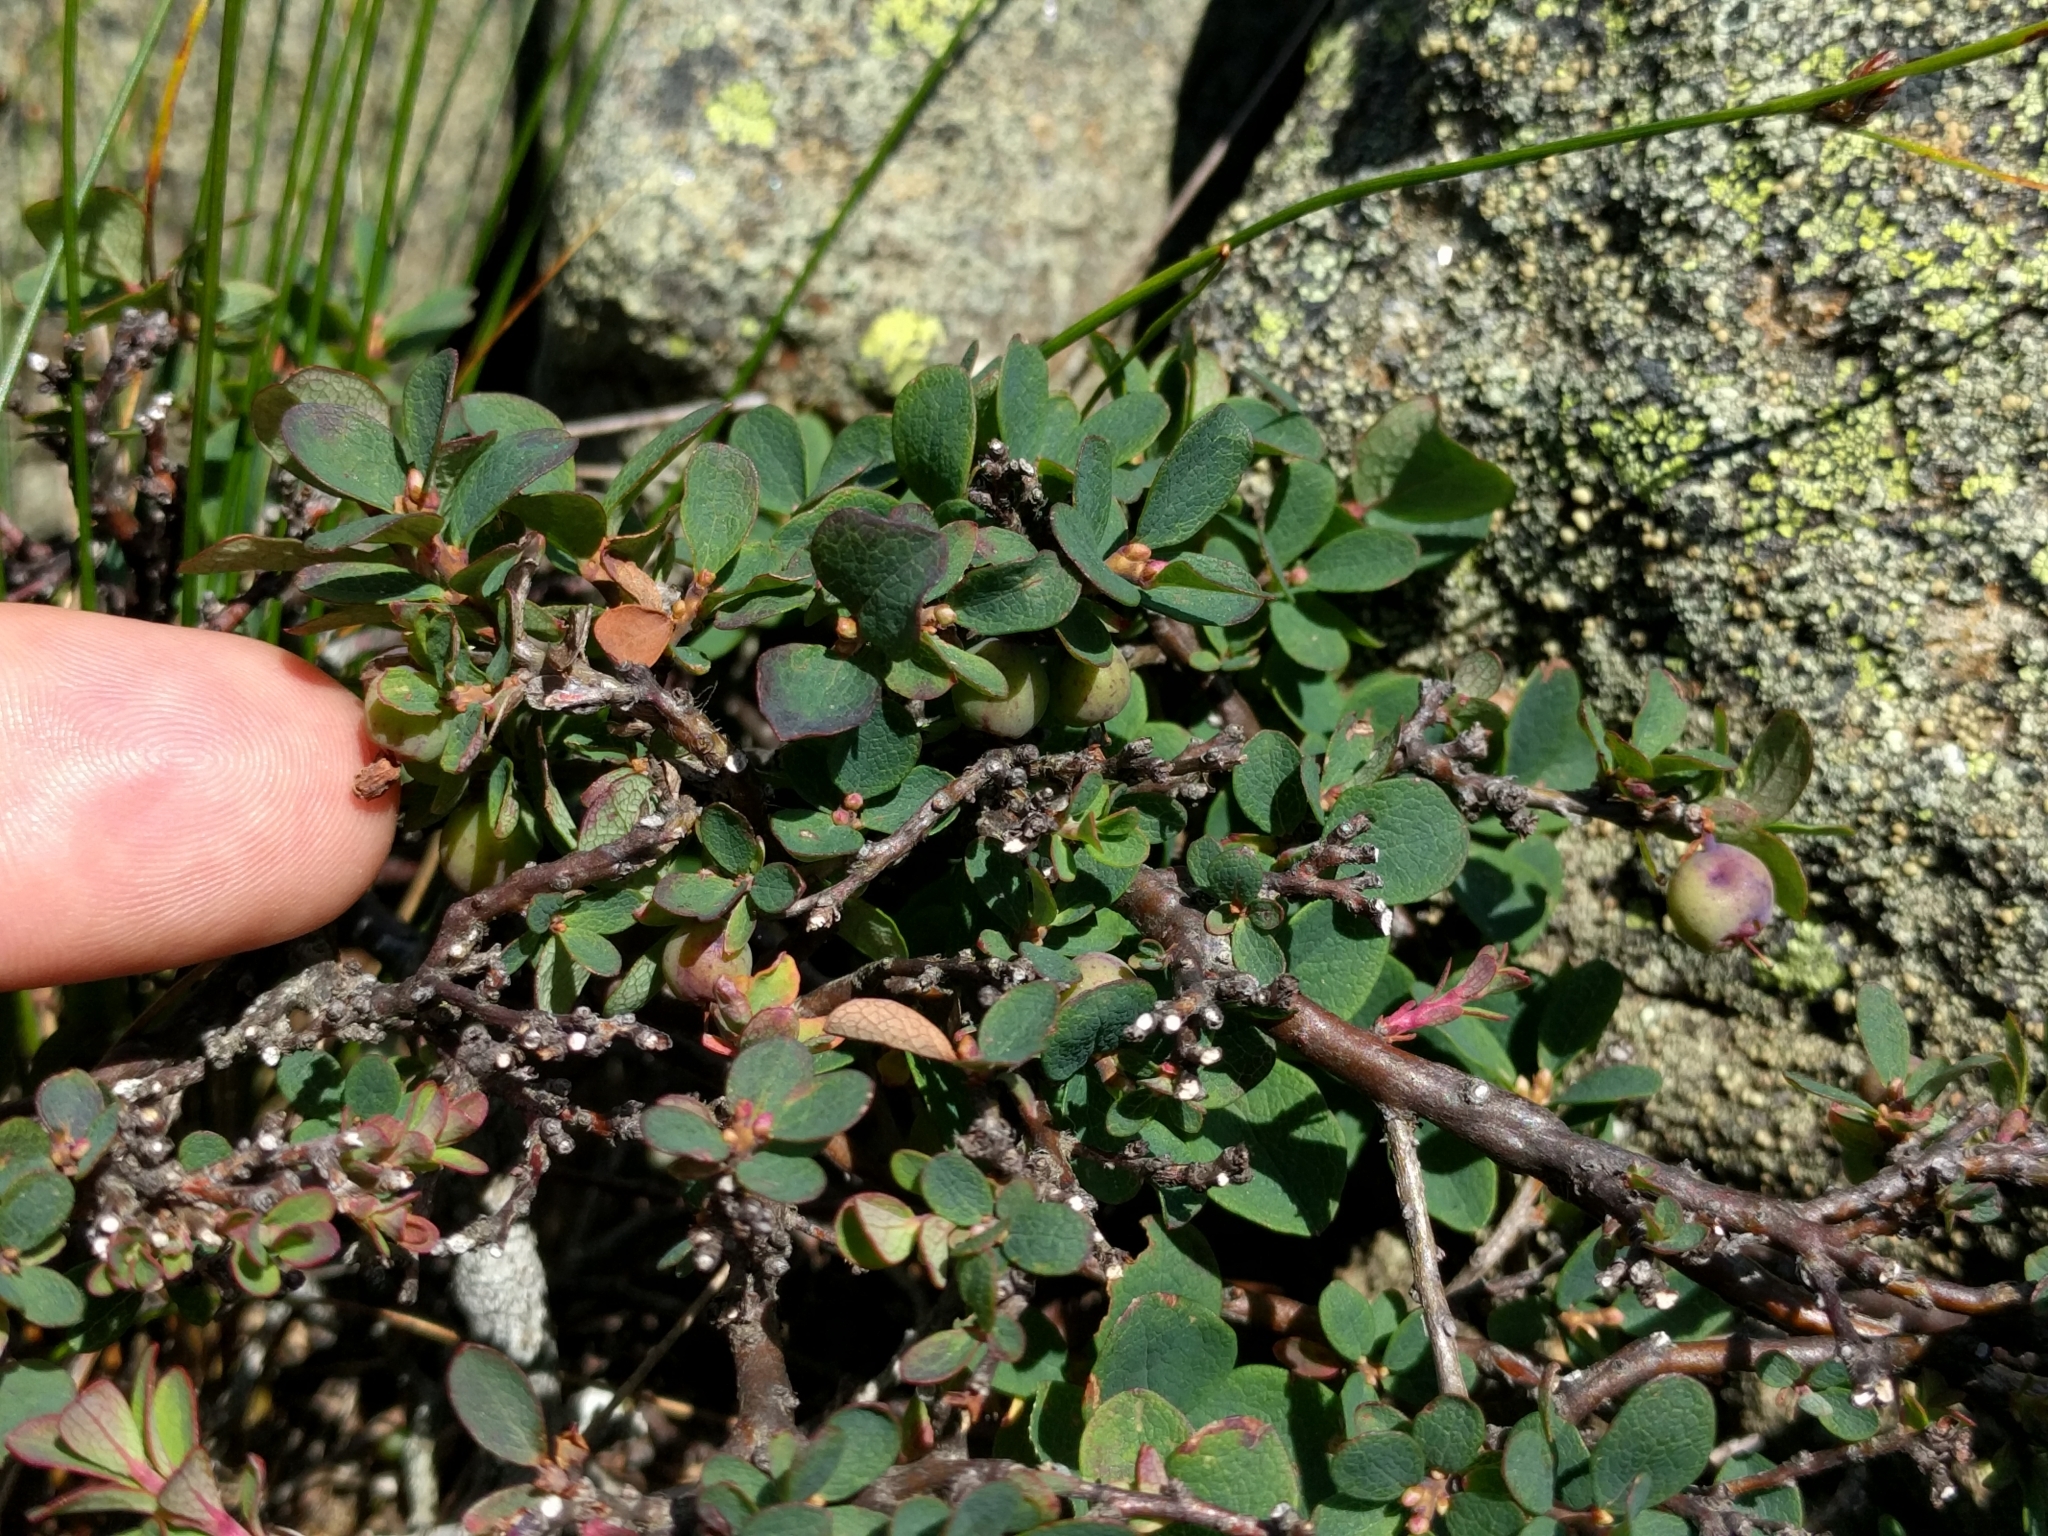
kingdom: Plantae
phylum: Tracheophyta
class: Magnoliopsida
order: Ericales
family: Ericaceae
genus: Vaccinium
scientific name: Vaccinium uliginosum
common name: Bog bilberry
